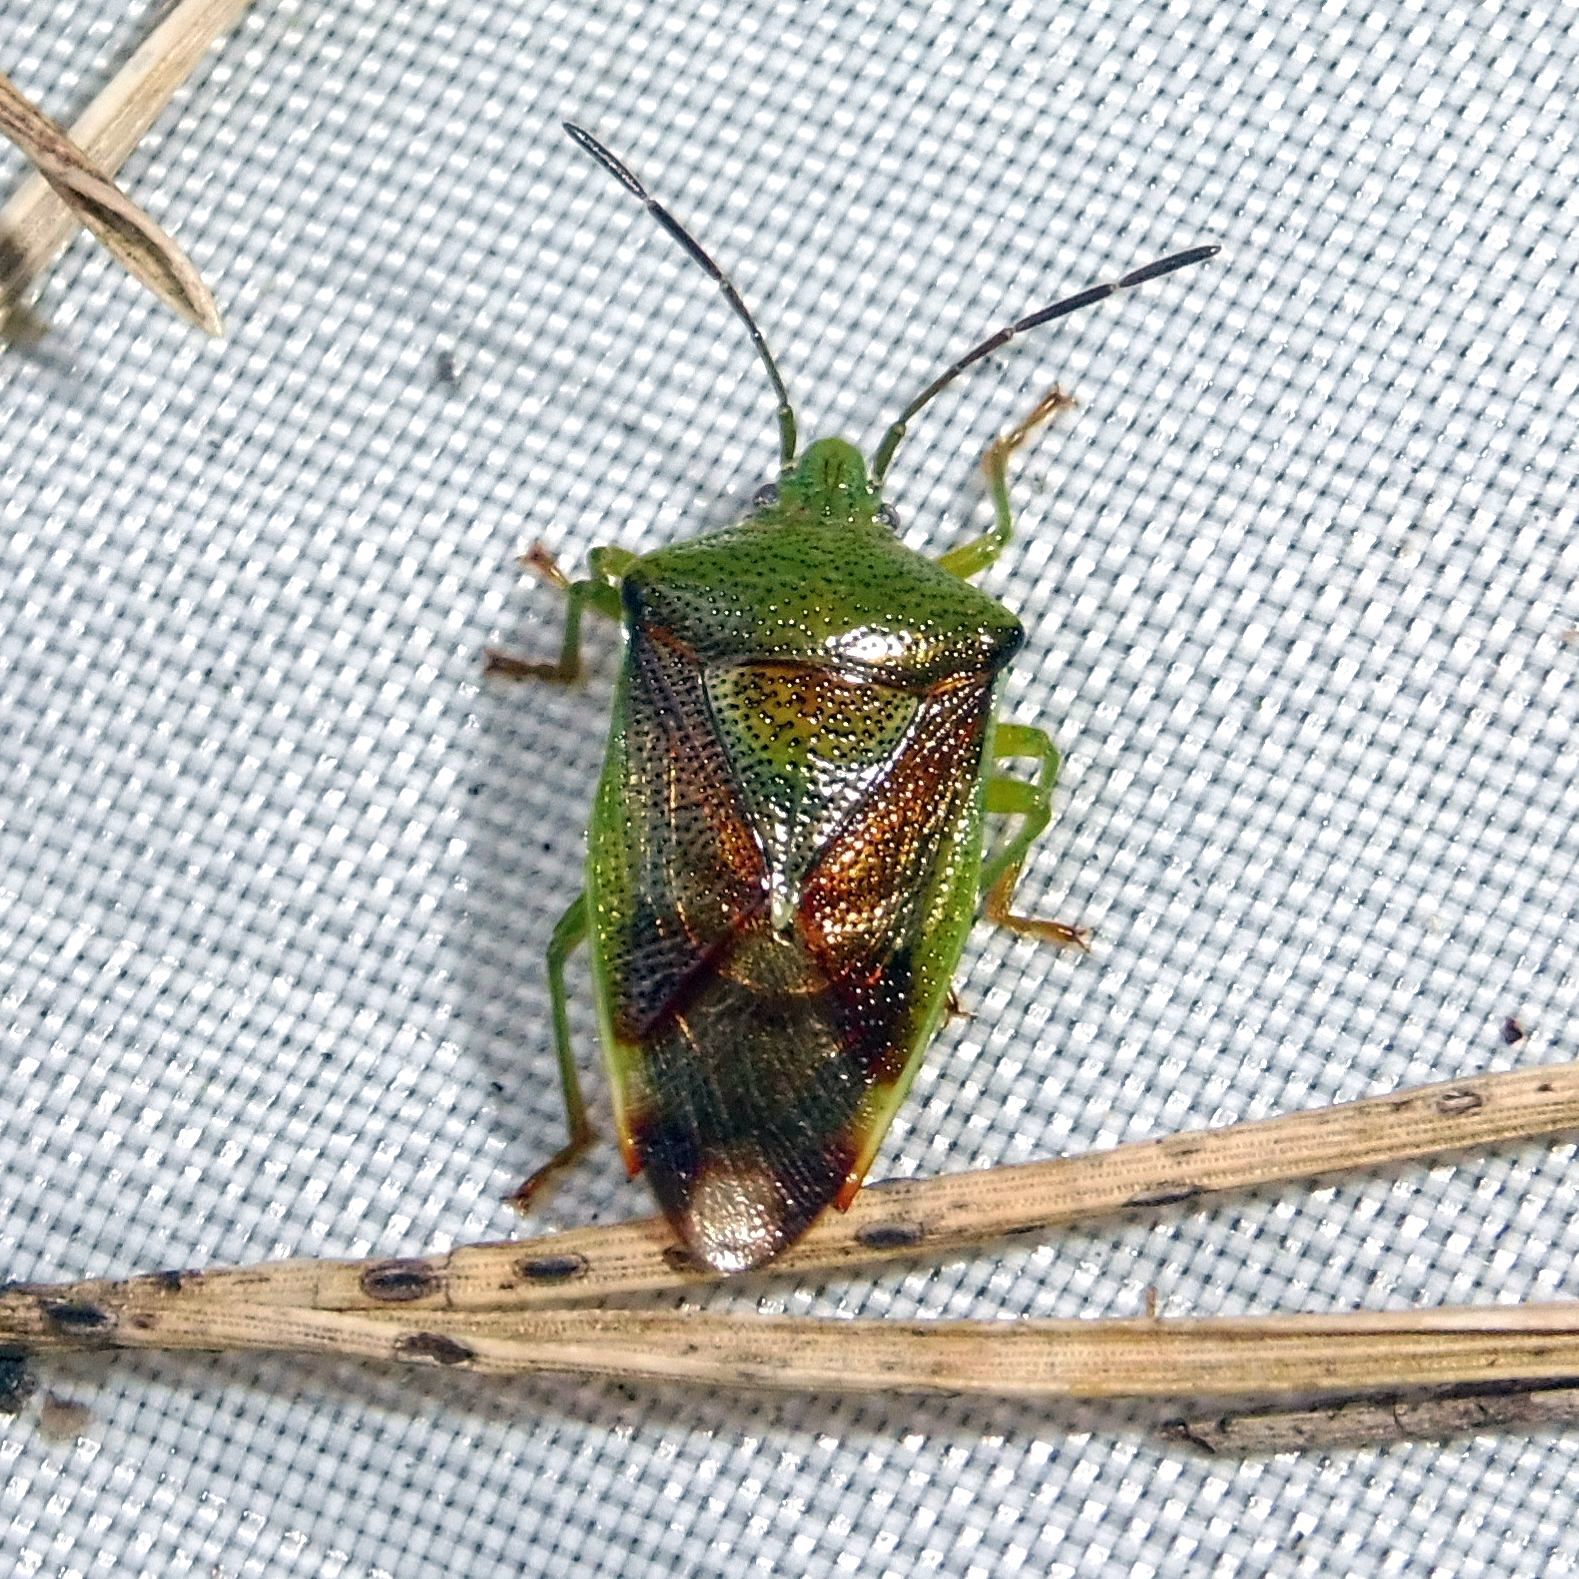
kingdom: Animalia
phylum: Arthropoda
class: Insecta
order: Hemiptera
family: Acanthosomatidae
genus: Elasmostethus
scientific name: Elasmostethus interstinctus
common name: Birch shieldbug
